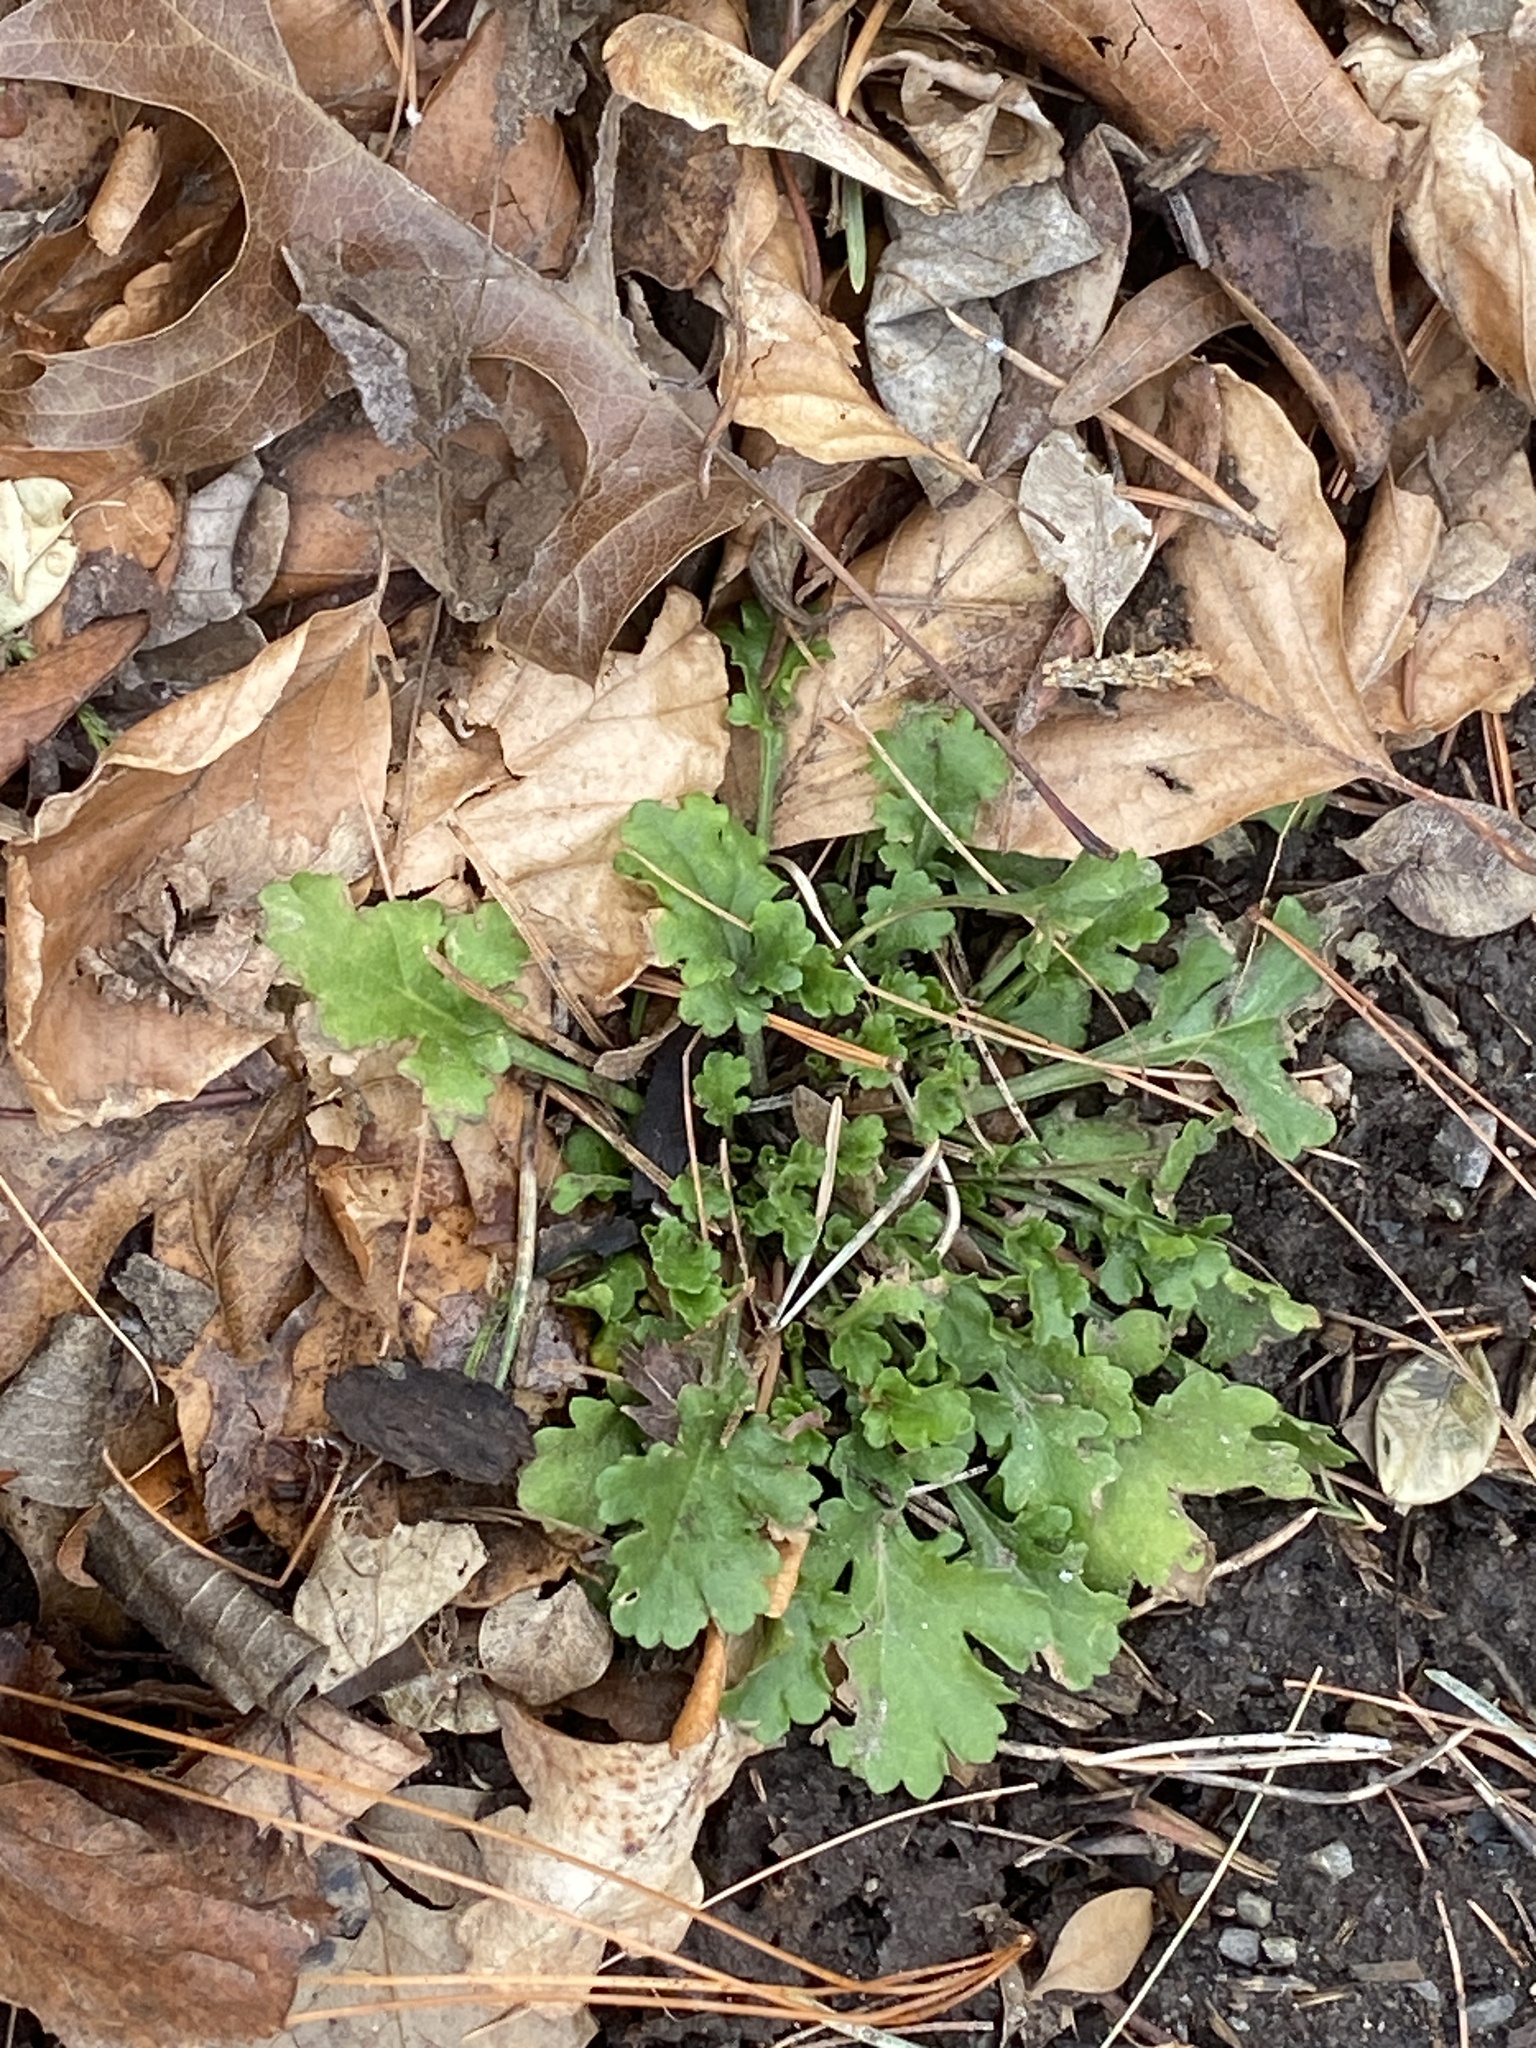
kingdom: Plantae
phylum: Tracheophyta
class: Magnoliopsida
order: Asterales
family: Asteraceae
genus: Leucanthemum
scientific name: Leucanthemum vulgare
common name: Oxeye daisy
